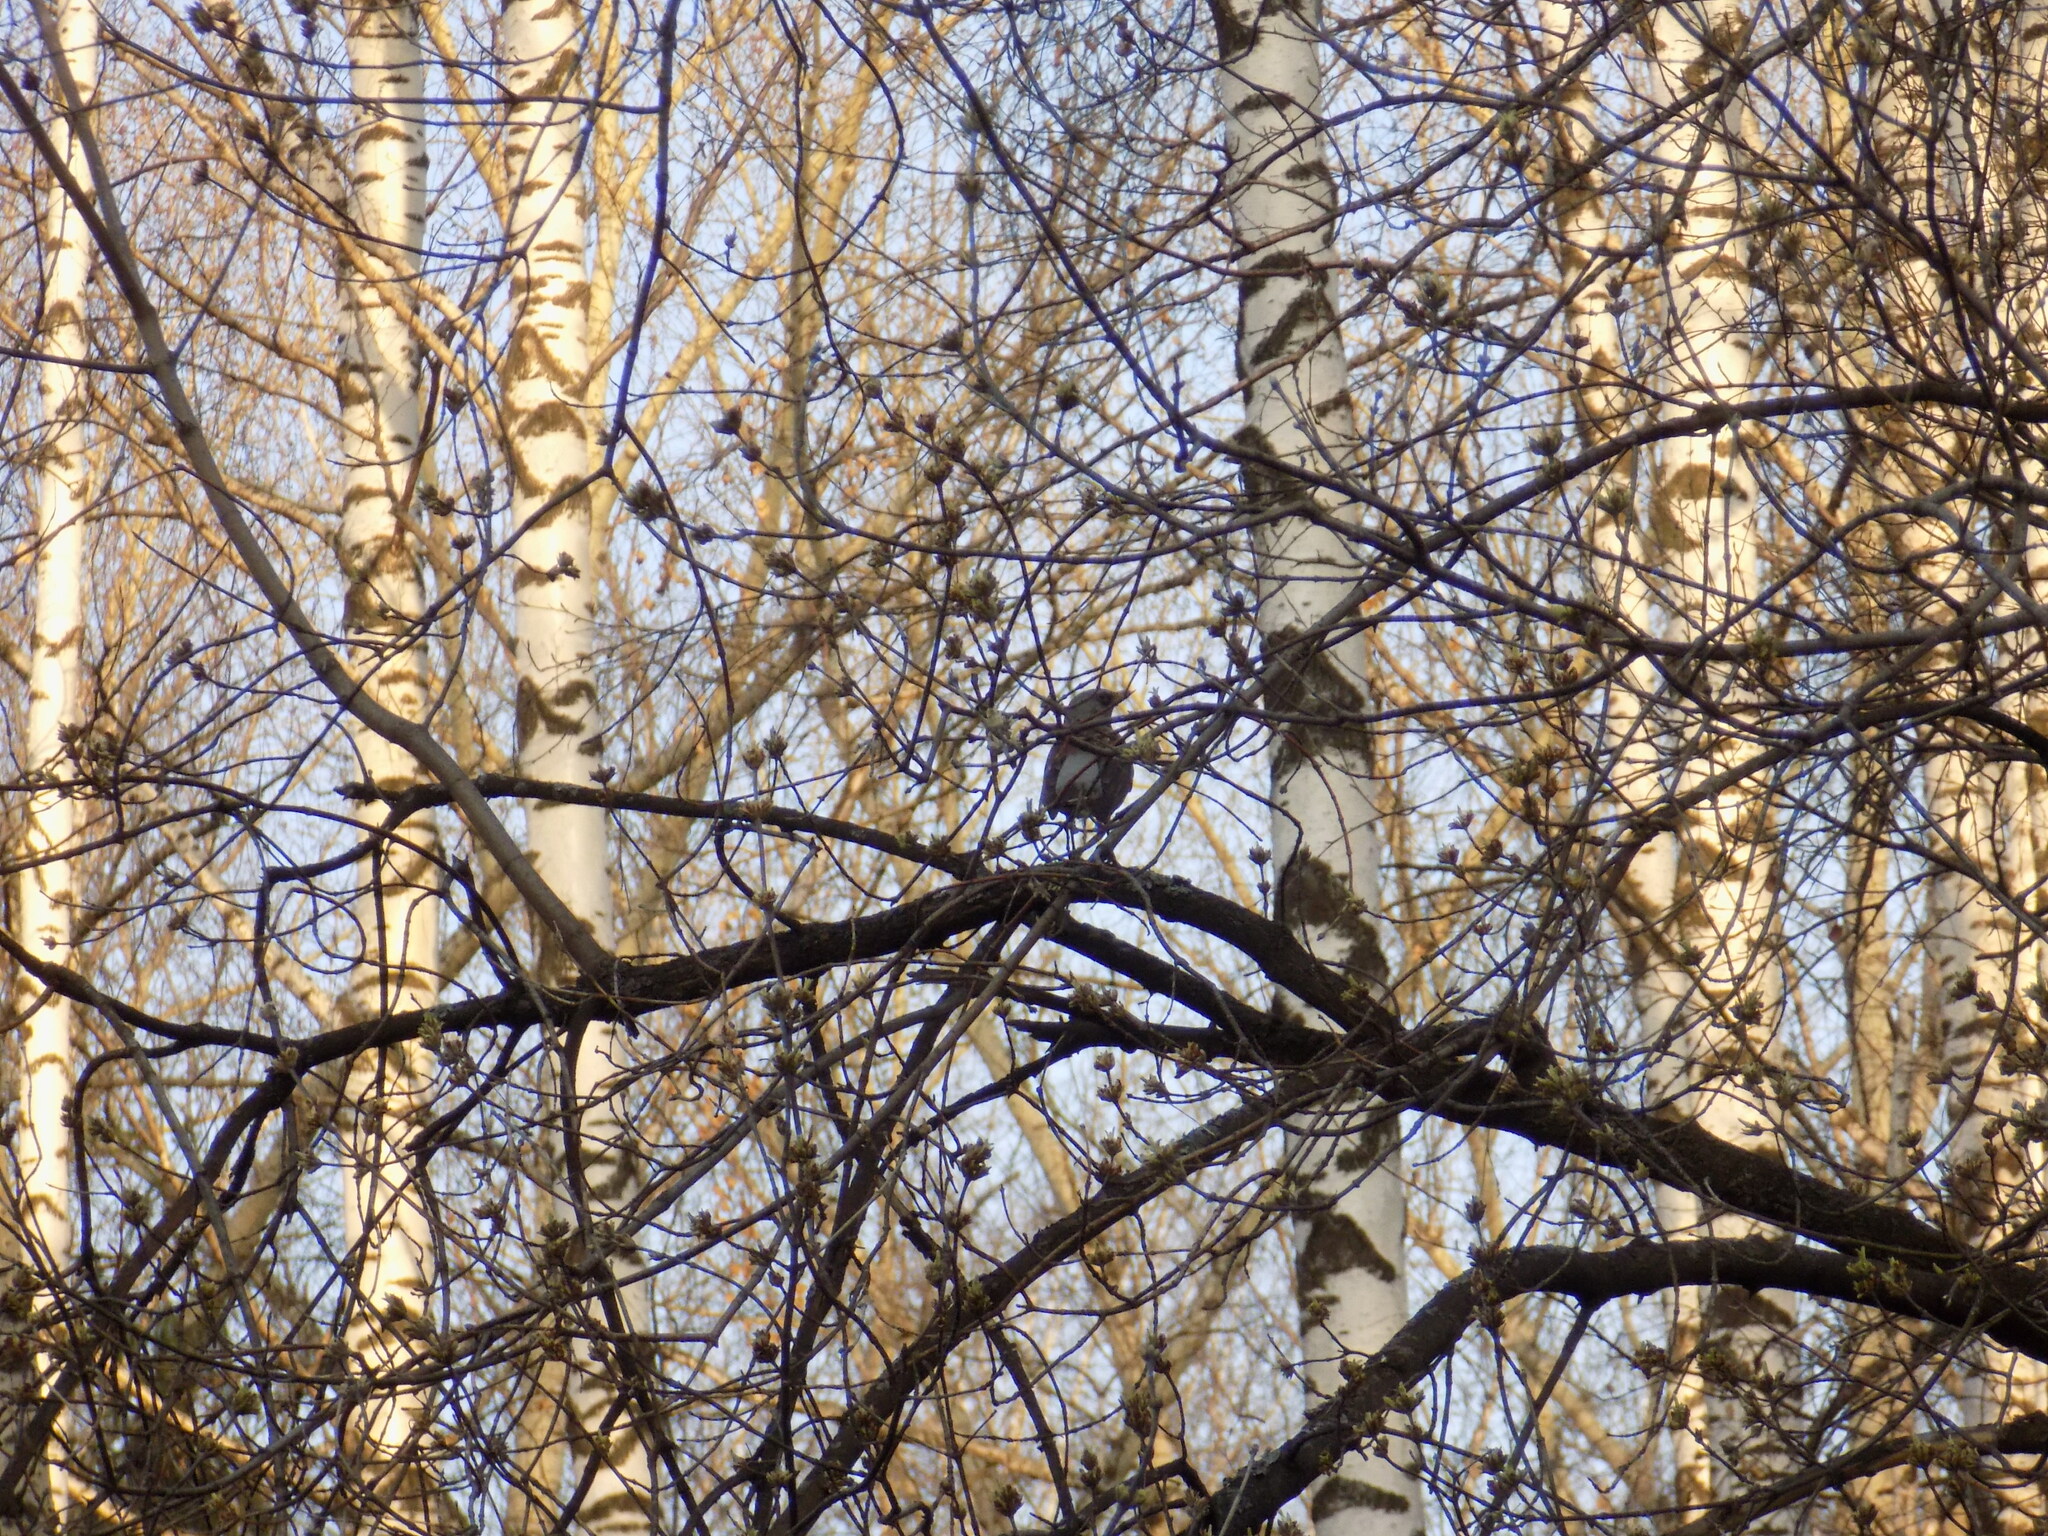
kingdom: Animalia
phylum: Chordata
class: Aves
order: Passeriformes
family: Turdidae
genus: Turdus
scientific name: Turdus pilaris
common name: Fieldfare
